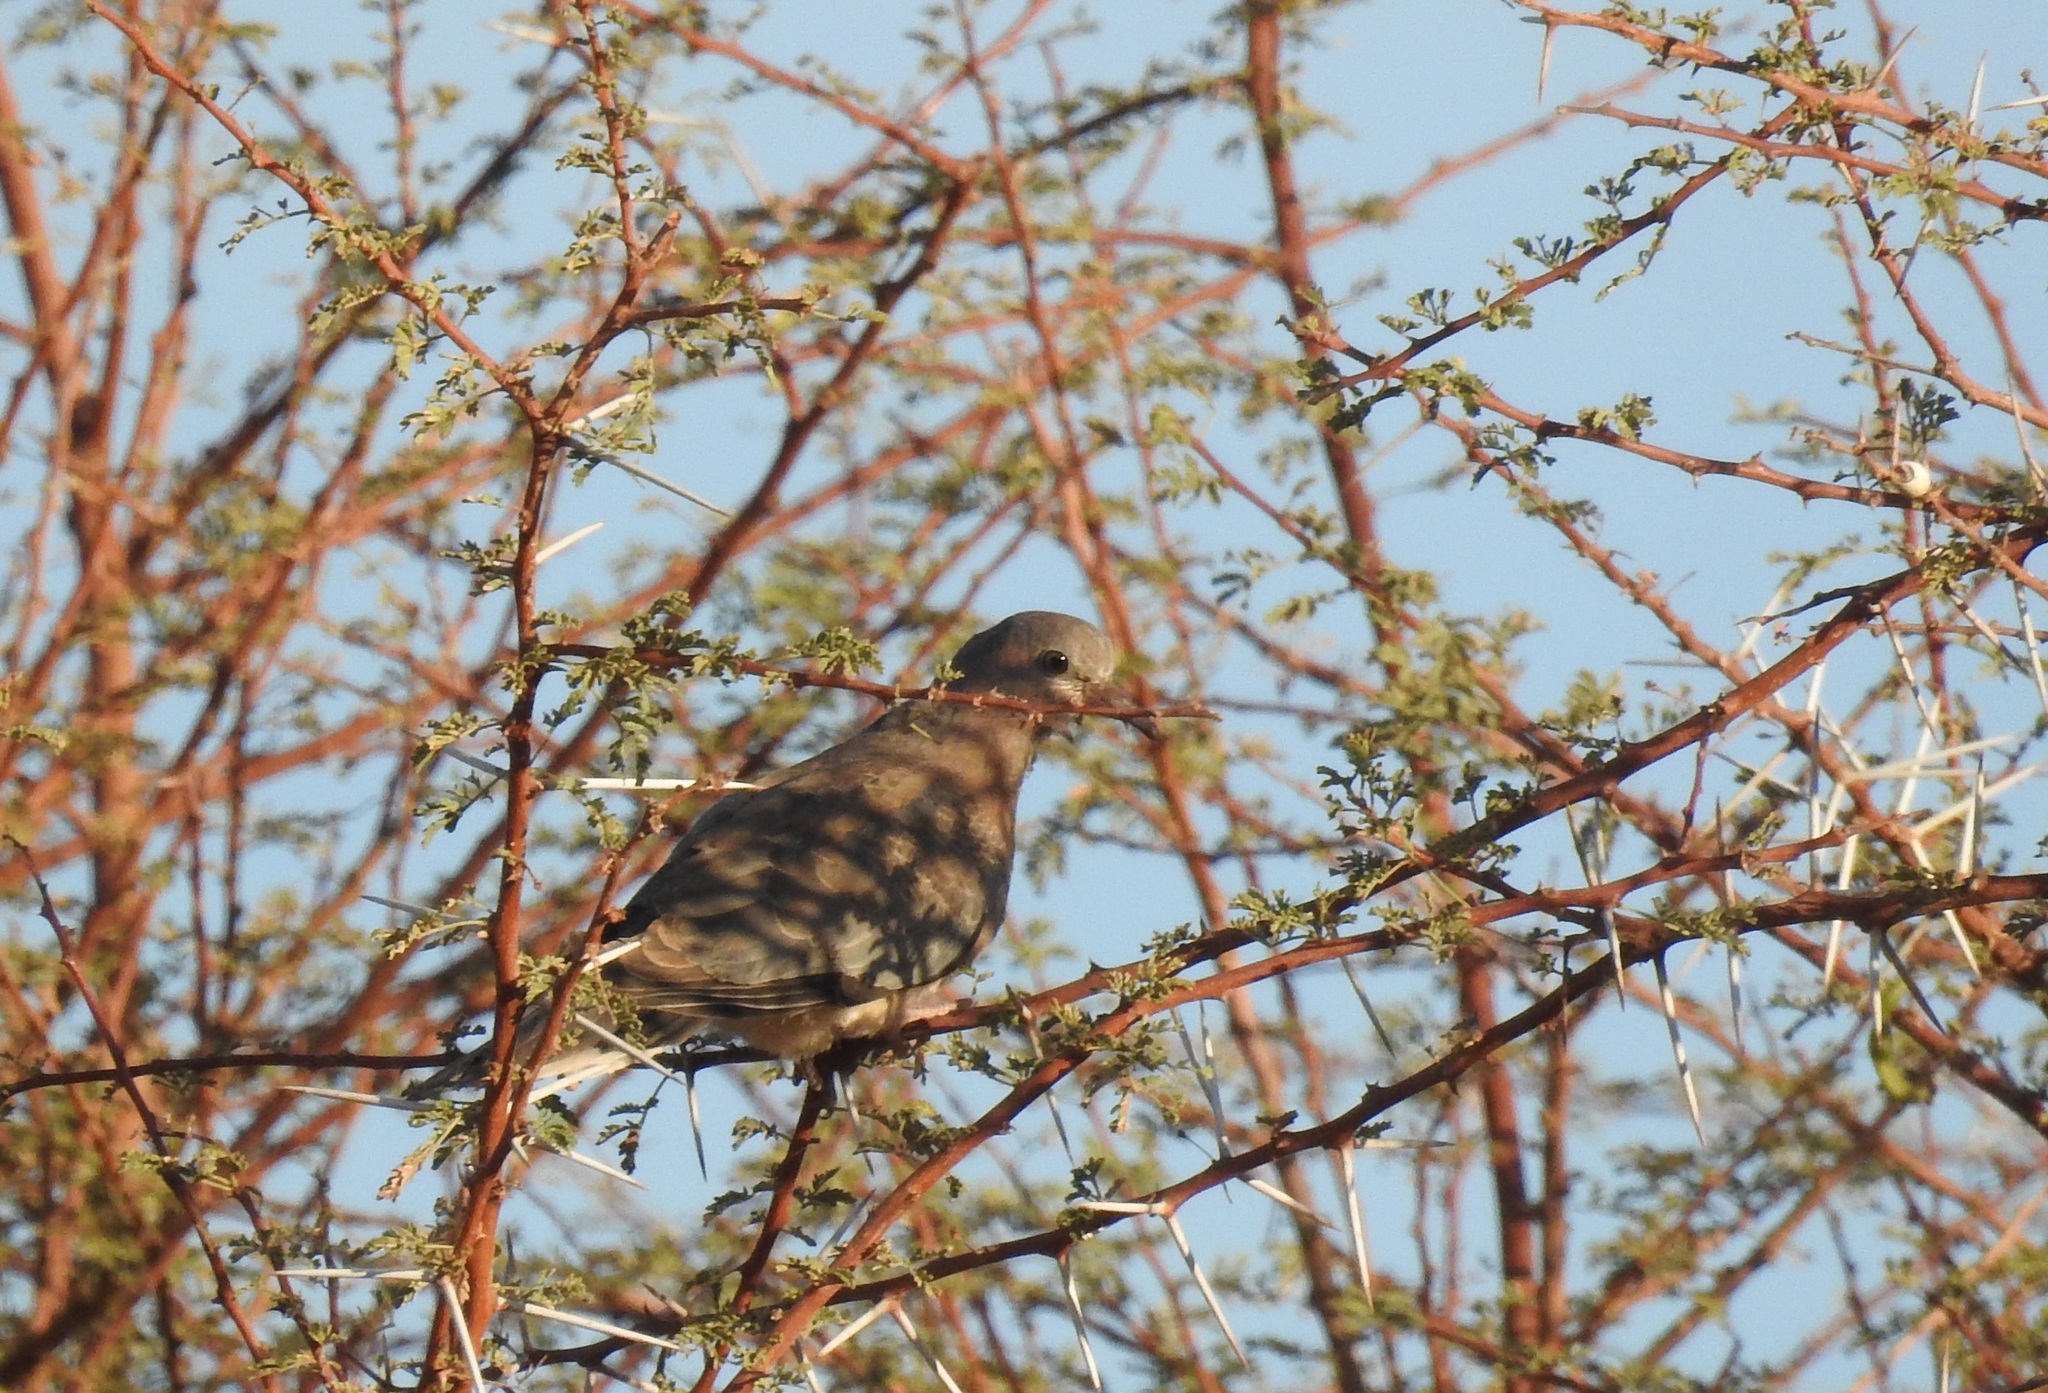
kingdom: Animalia
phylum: Chordata
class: Aves
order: Columbiformes
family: Columbidae
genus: Spilopelia
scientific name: Spilopelia senegalensis
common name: Laughing dove
